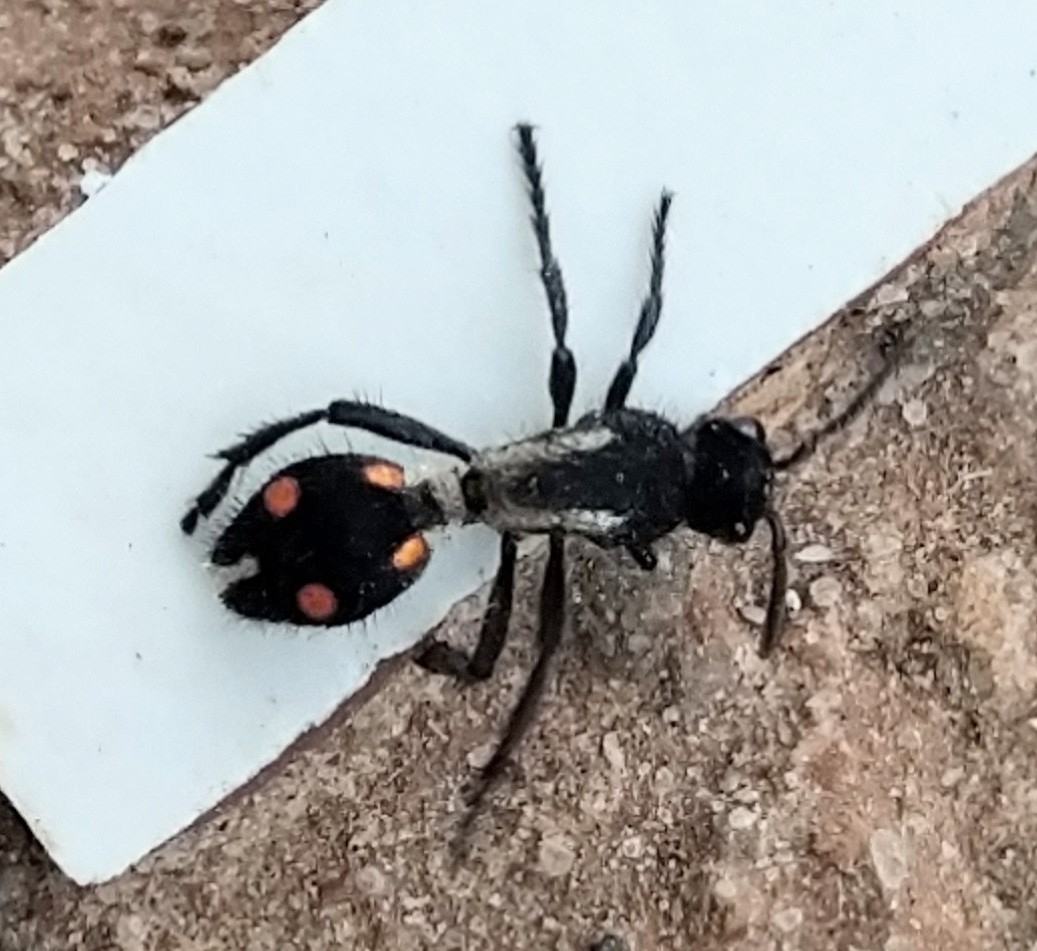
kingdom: Animalia
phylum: Arthropoda
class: Insecta
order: Hymenoptera
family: Mutillidae
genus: Traumatomutilla
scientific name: Traumatomutilla
